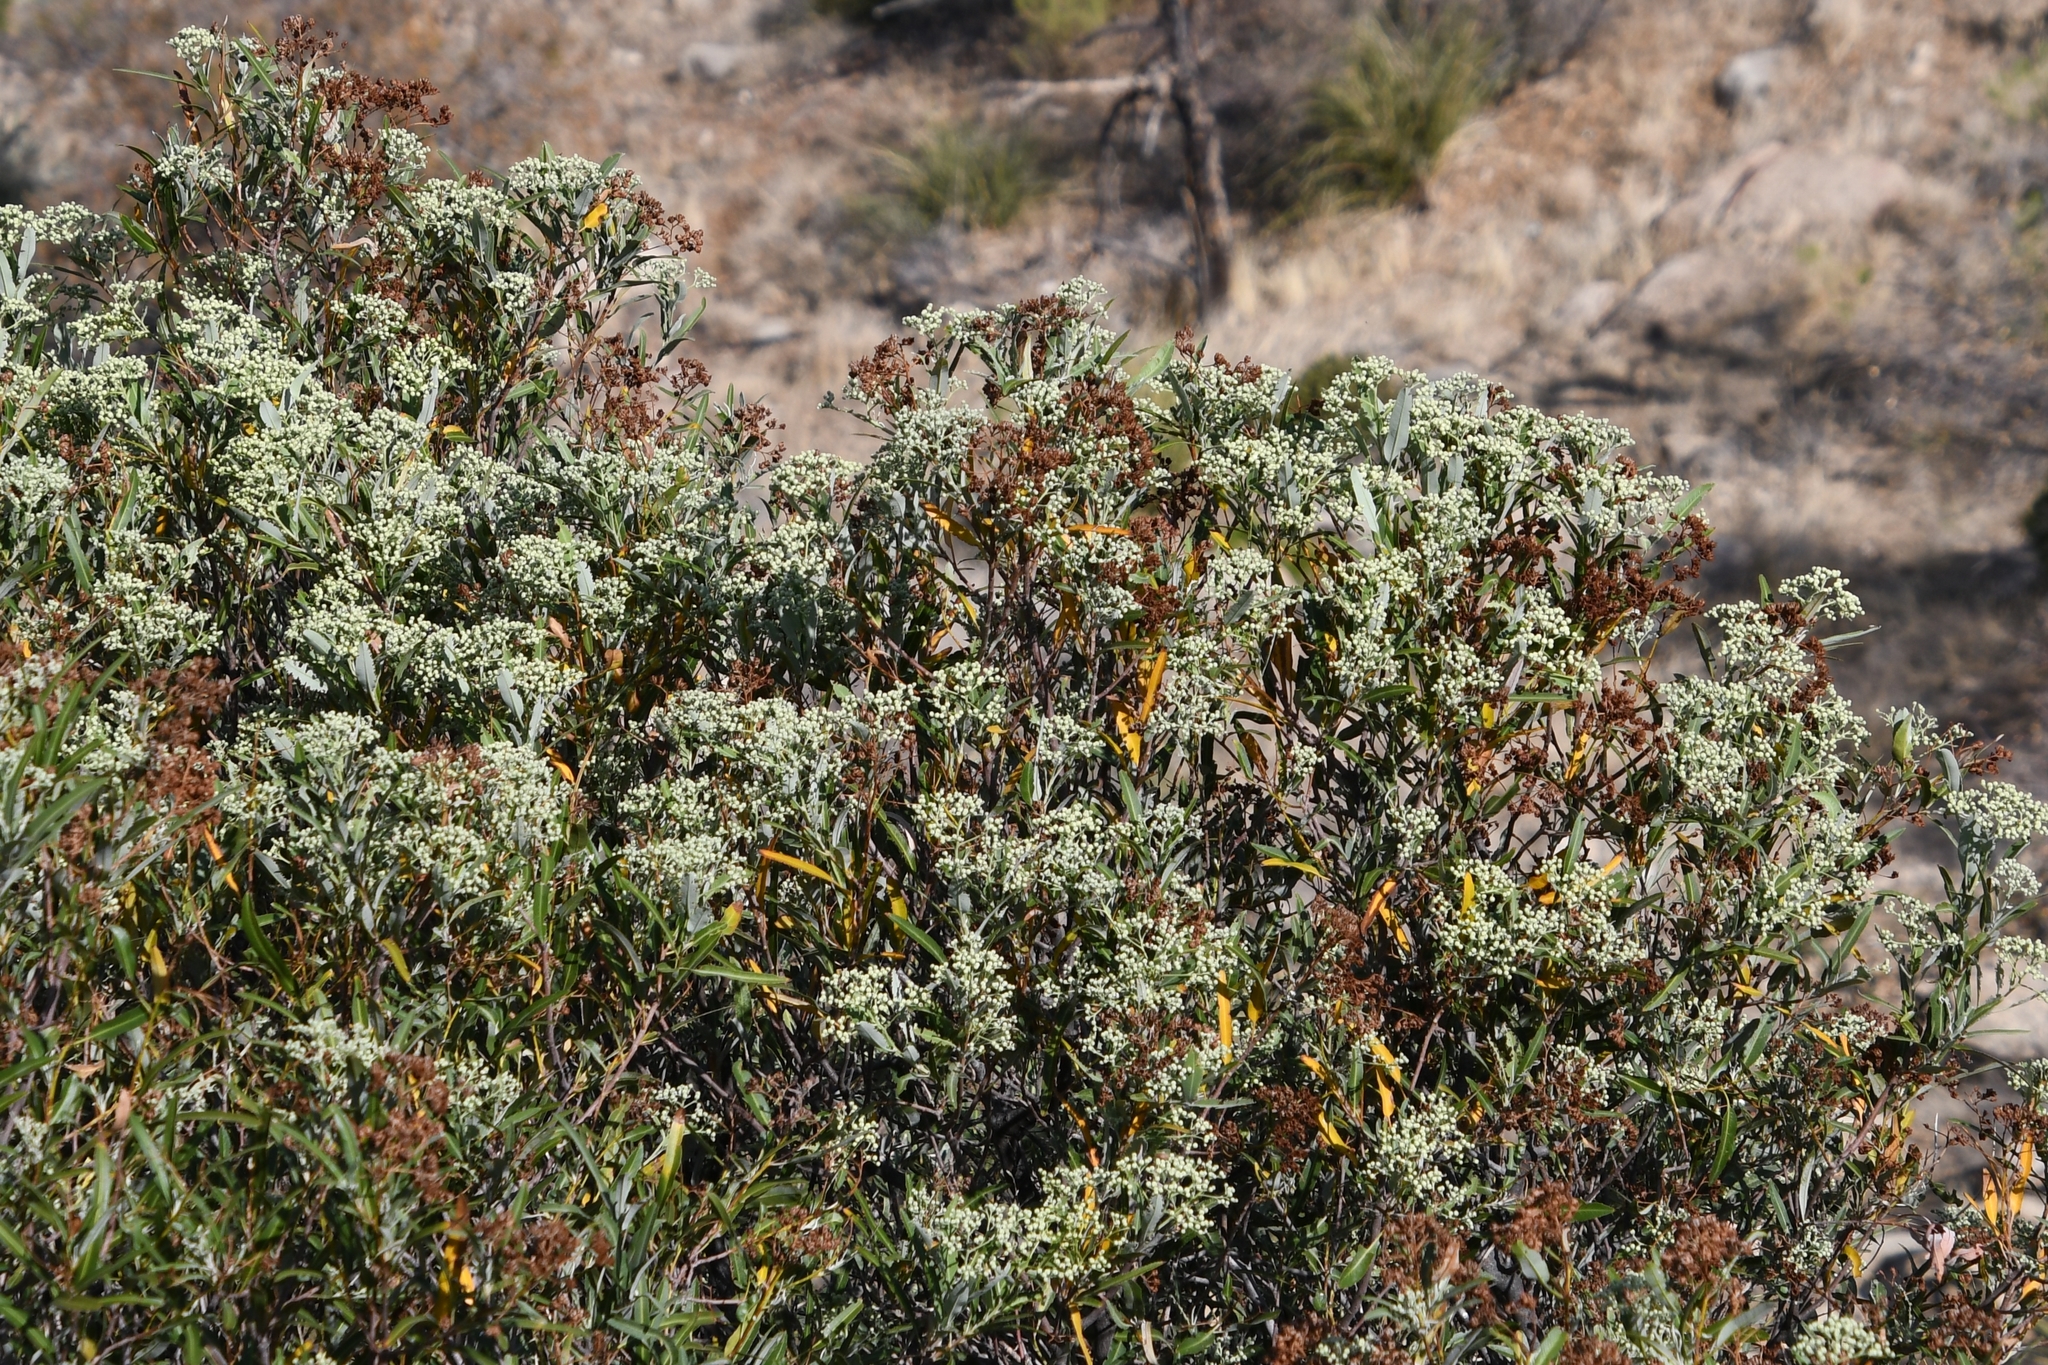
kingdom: Plantae
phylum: Tracheophyta
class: Magnoliopsida
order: Rosales
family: Rosaceae
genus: Vauquelinia
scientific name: Vauquelinia californica
